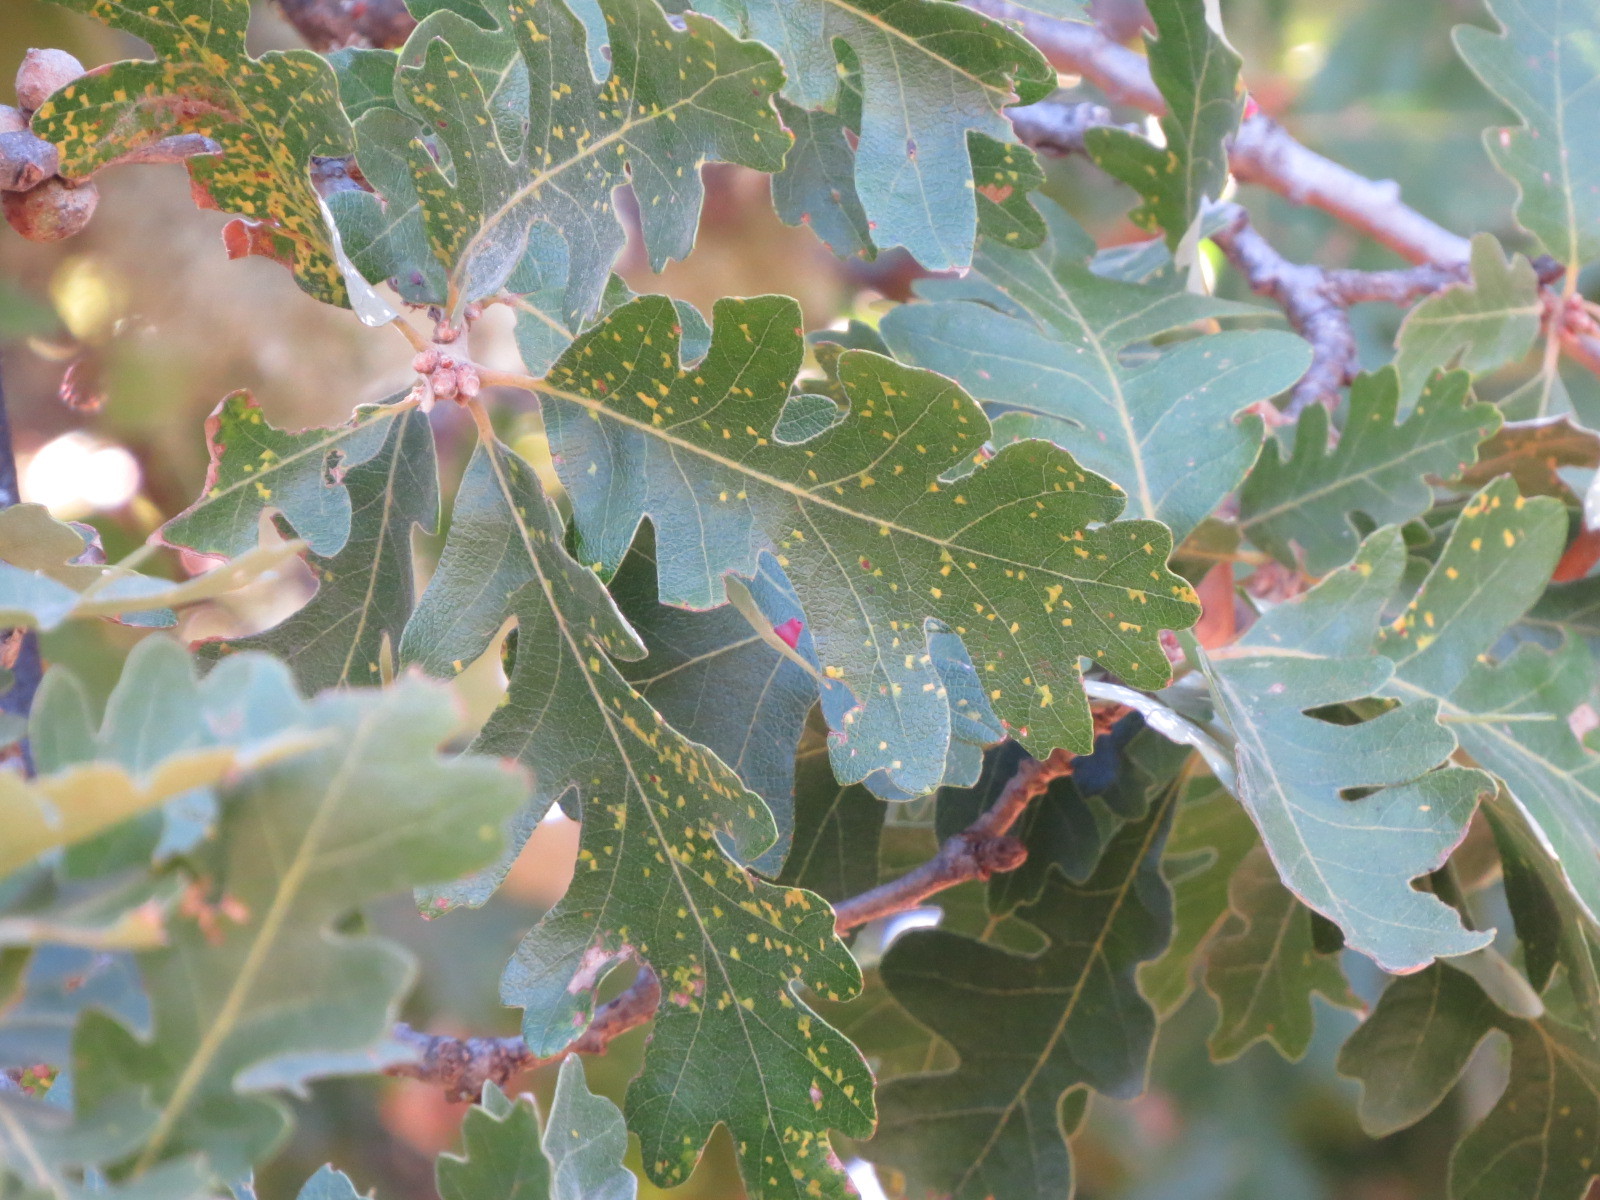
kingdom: Plantae
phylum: Tracheophyta
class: Magnoliopsida
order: Fagales
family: Fagaceae
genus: Quercus
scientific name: Quercus lobata
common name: Valley oak
